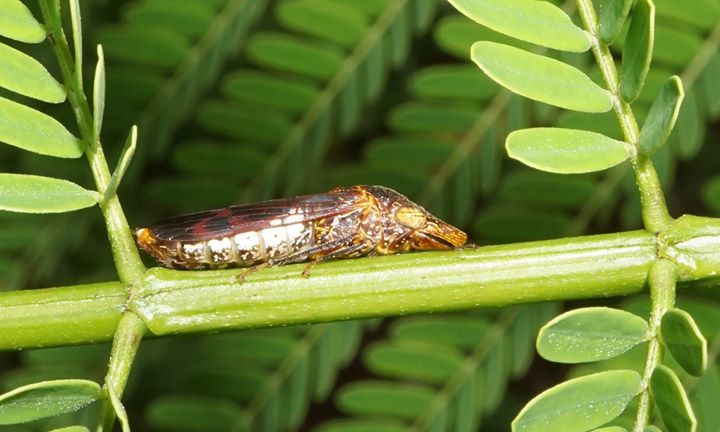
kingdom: Animalia
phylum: Arthropoda
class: Insecta
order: Hemiptera
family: Cicadellidae
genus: Homalodisca
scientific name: Homalodisca vitripennis
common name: Glassy-winged sharpshooter
